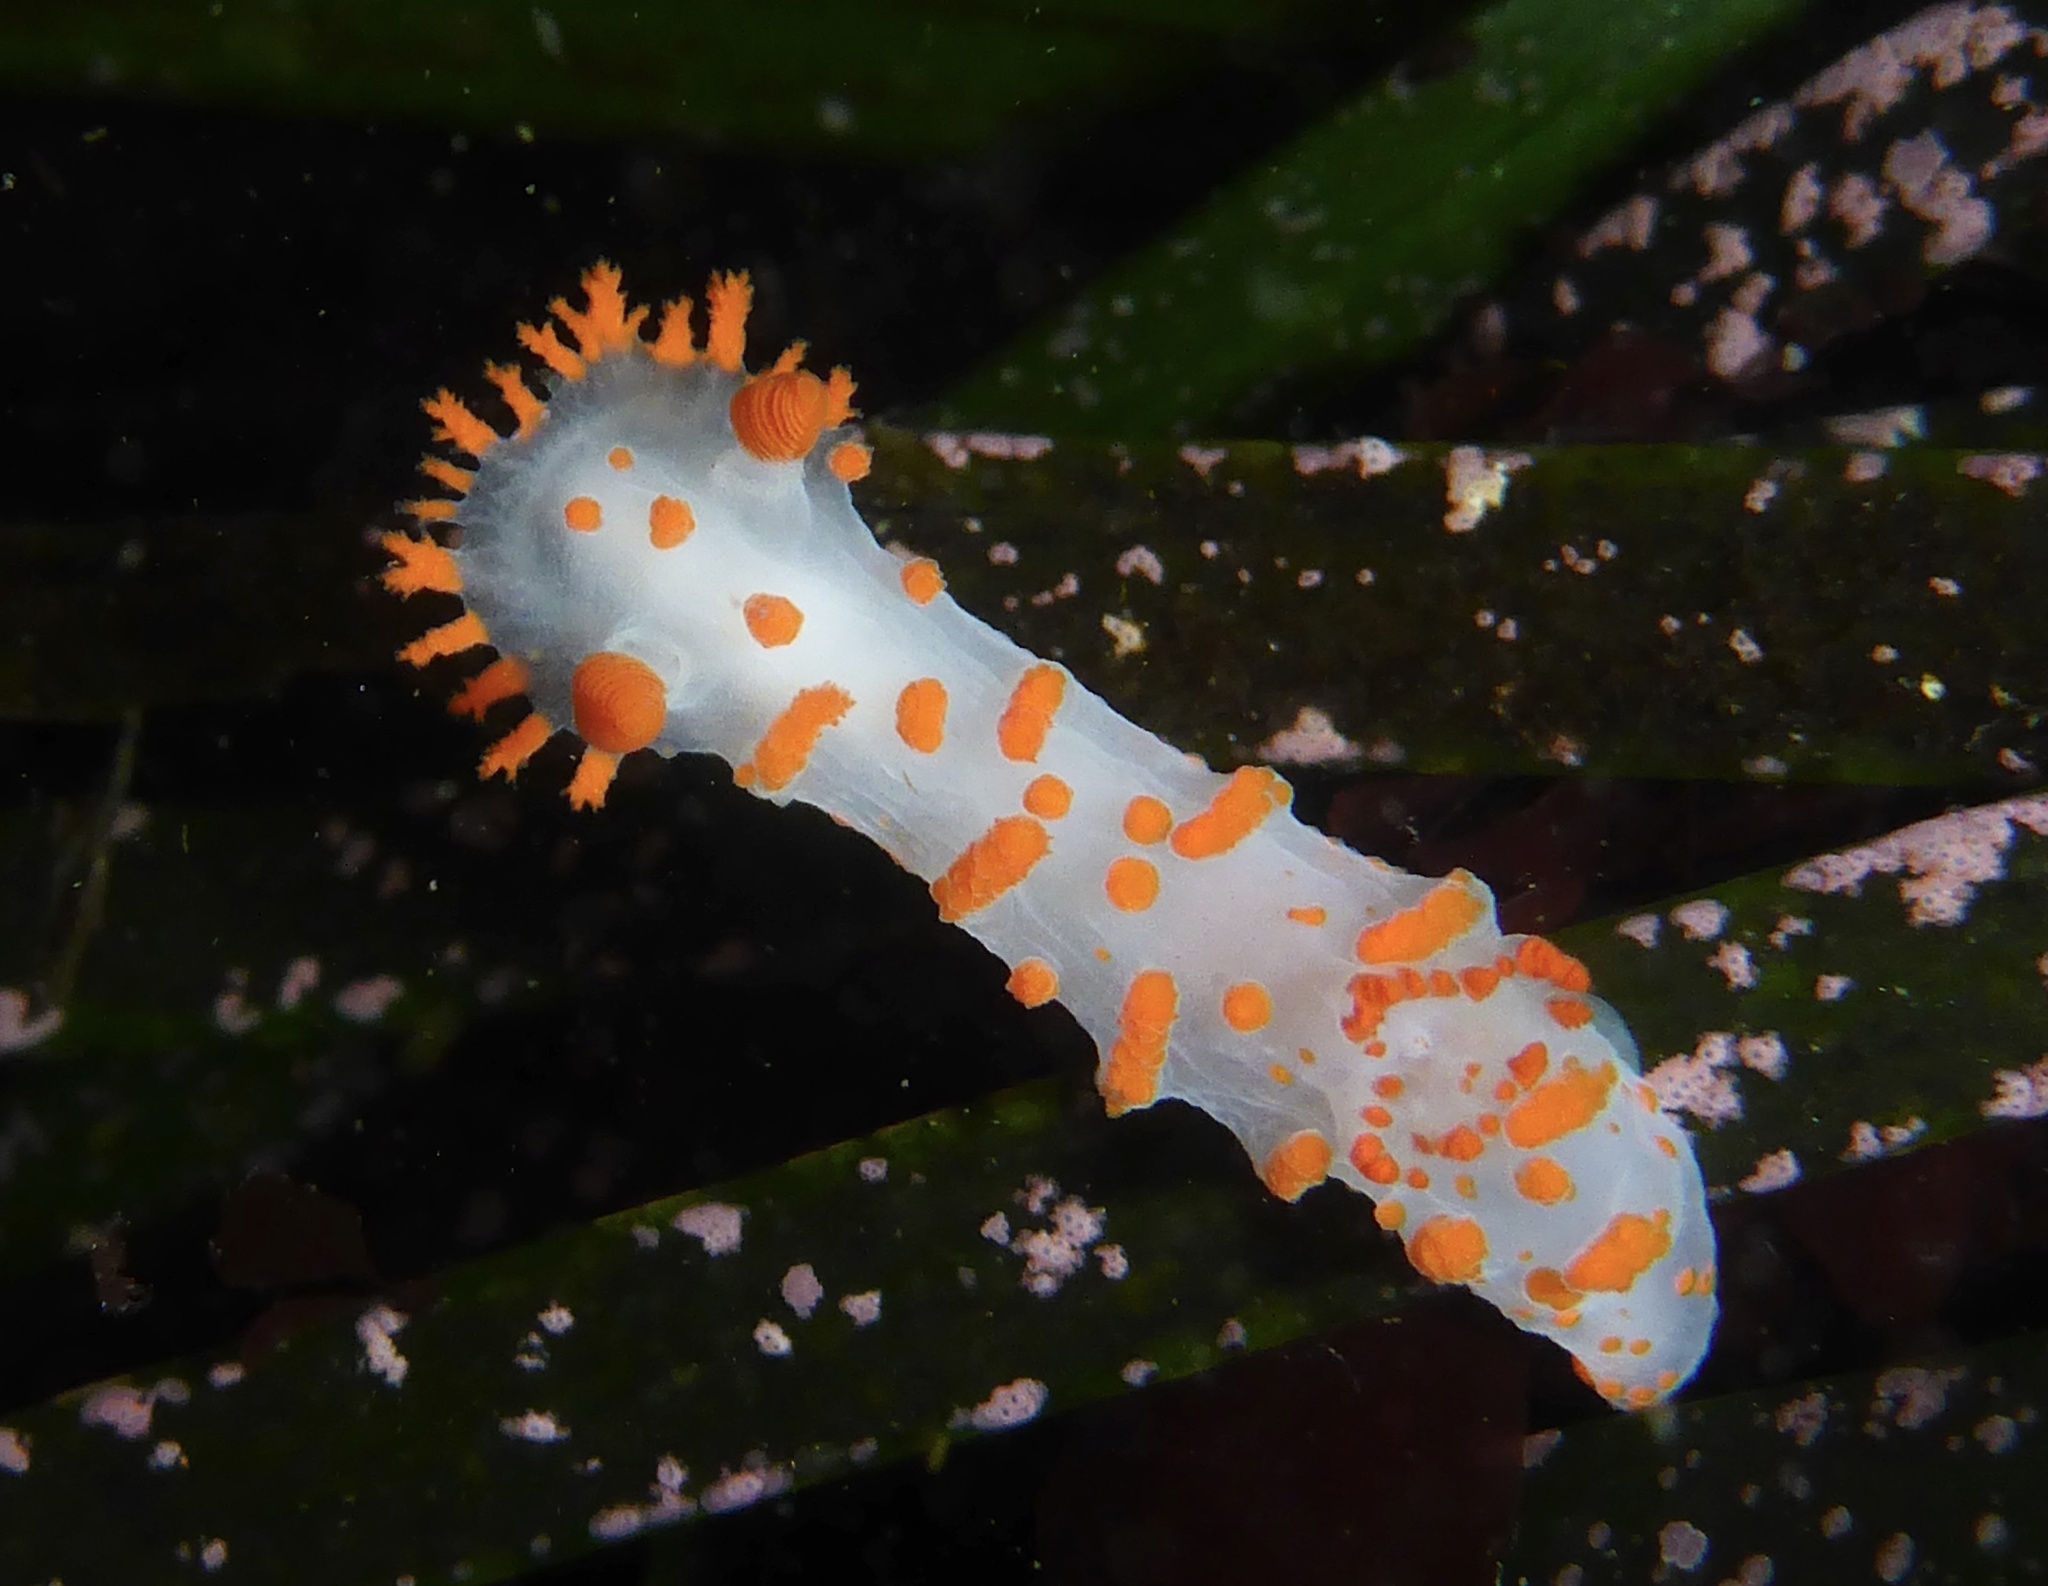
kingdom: Animalia
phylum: Mollusca
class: Gastropoda
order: Nudibranchia
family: Polyceridae
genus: Triopha
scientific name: Triopha catalinae
